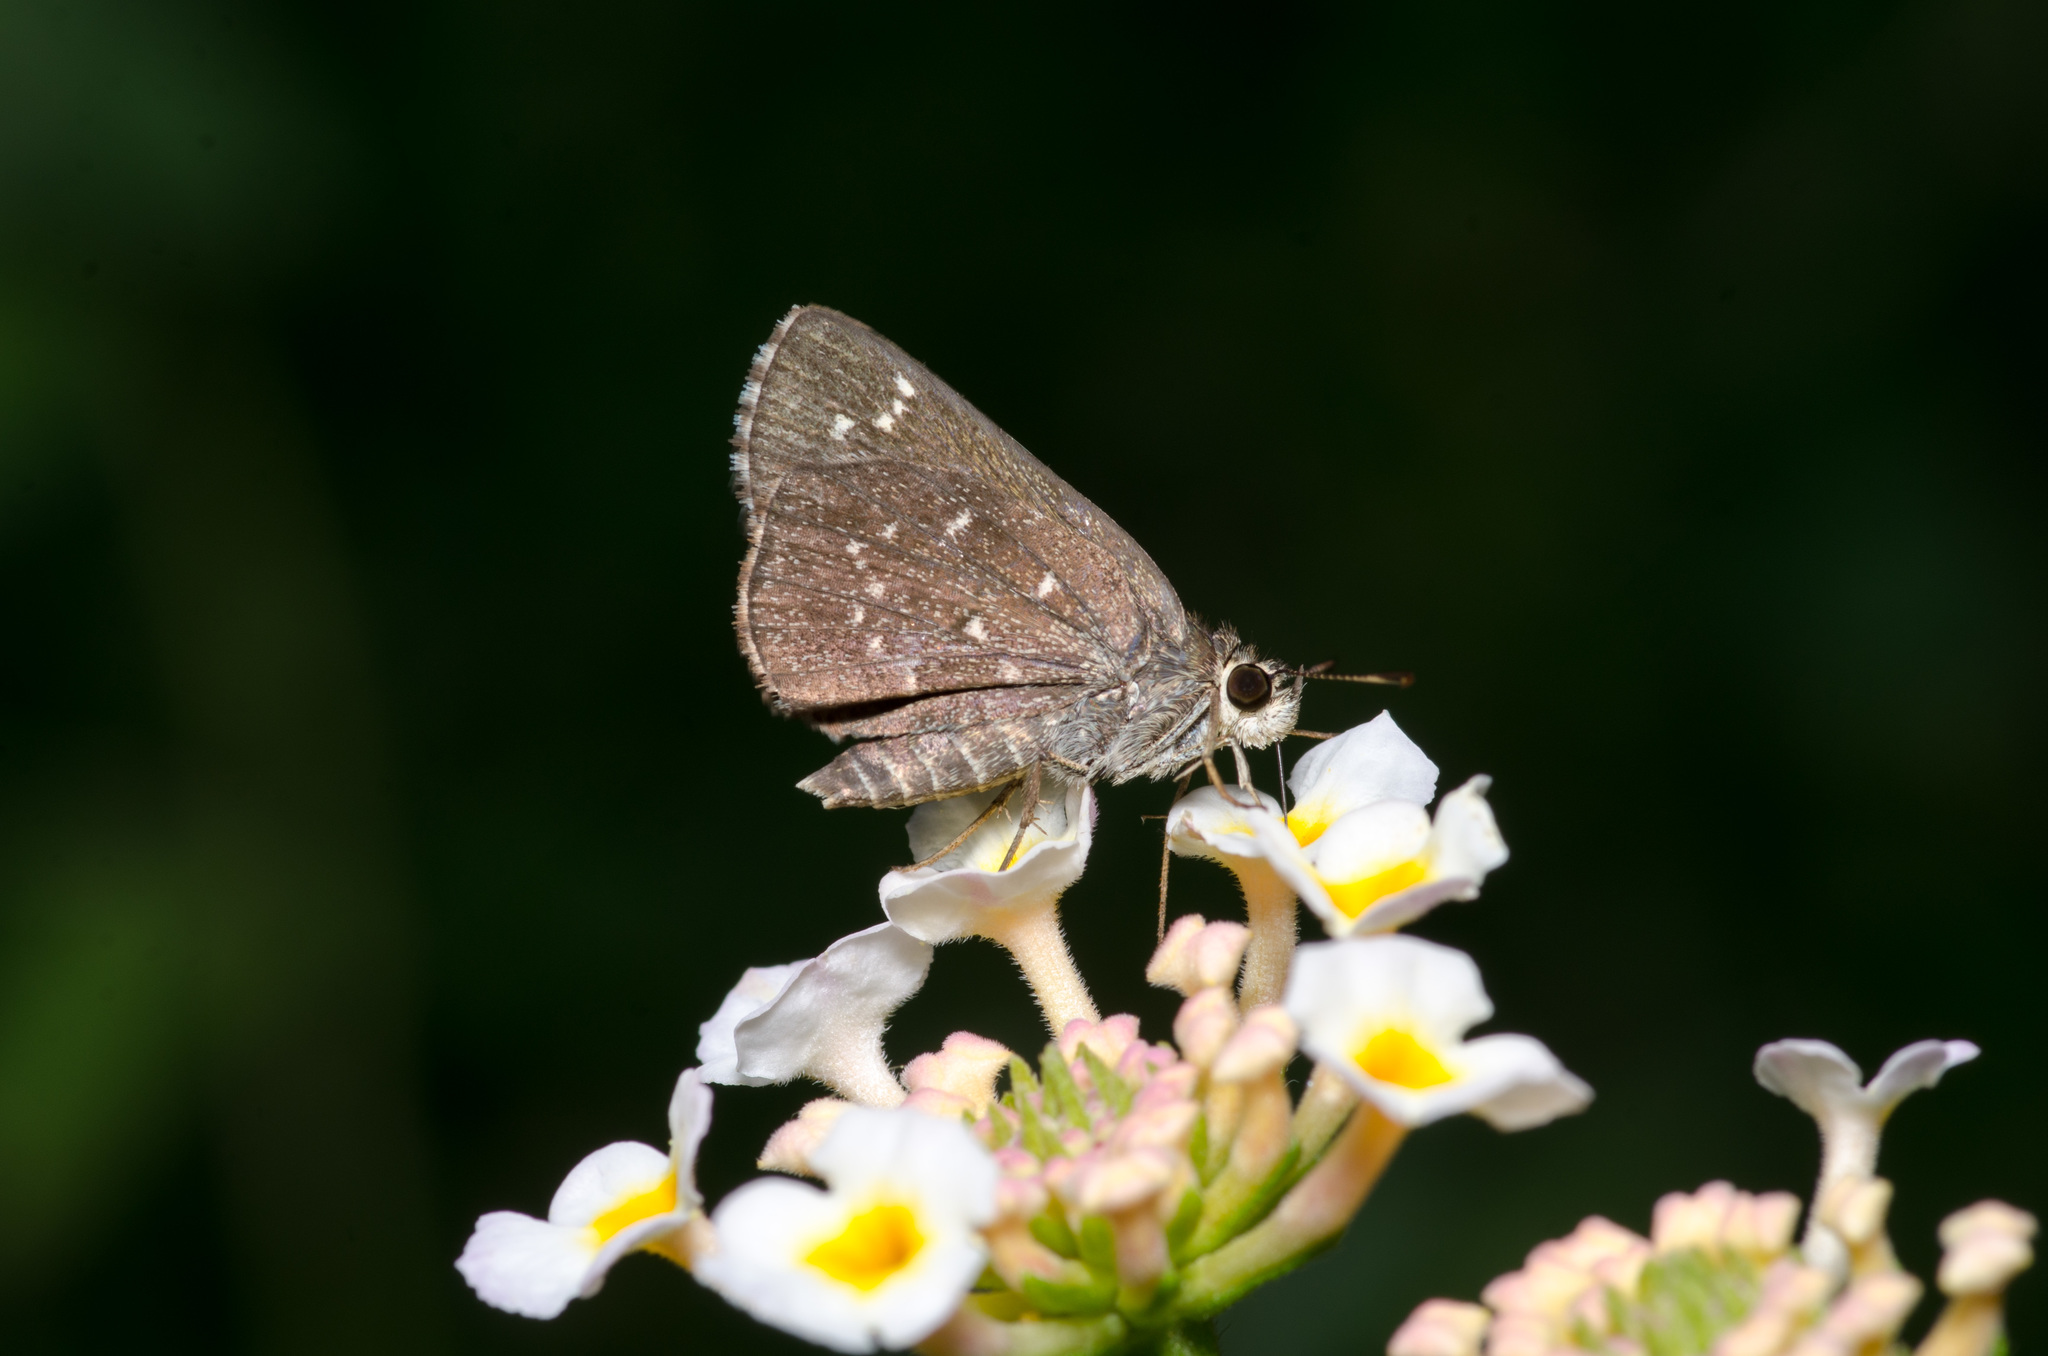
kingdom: Animalia
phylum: Arthropoda
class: Insecta
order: Lepidoptera
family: Hesperiidae
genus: Mastor
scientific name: Mastor celia
